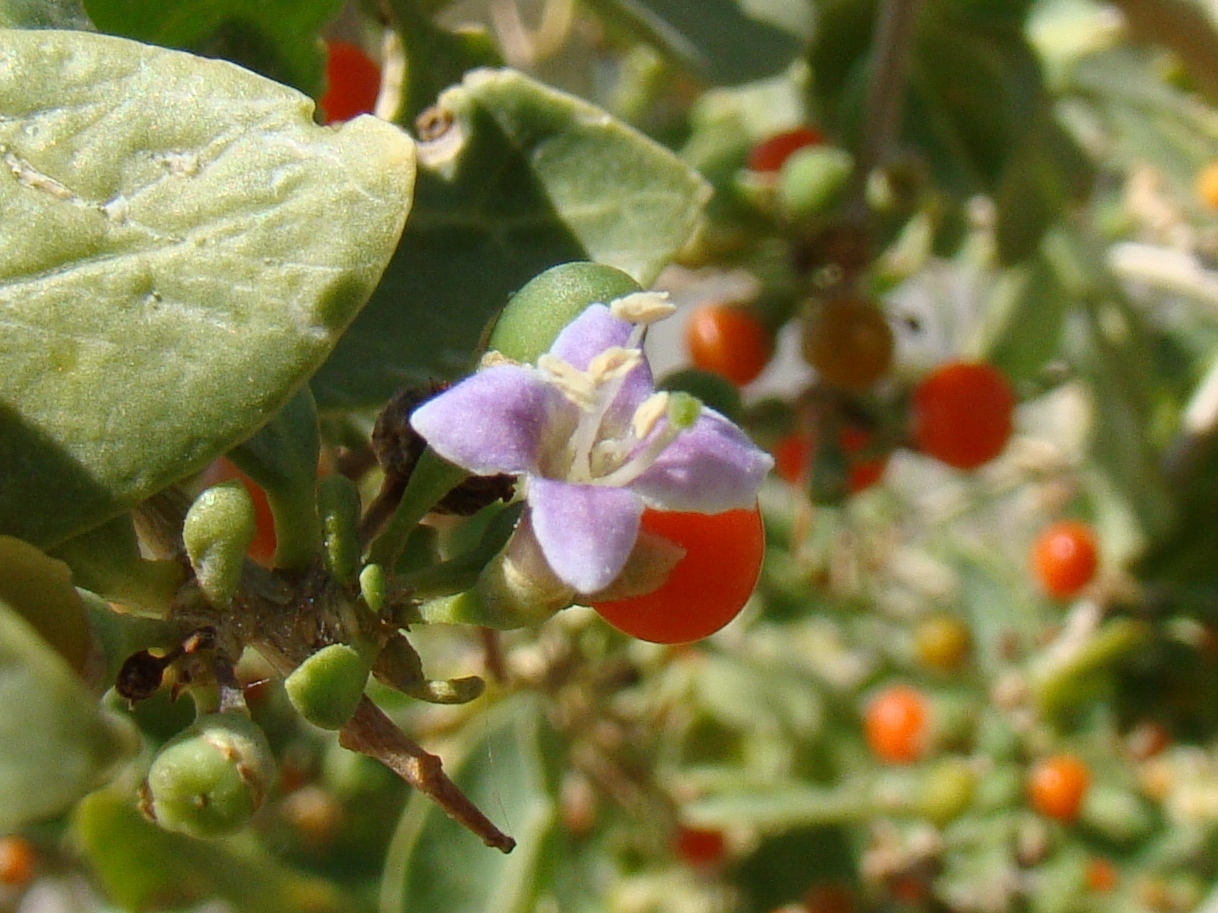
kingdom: Plantae
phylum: Tracheophyta
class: Magnoliopsida
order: Solanales
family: Solanaceae
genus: Lycium
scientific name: Lycium dasystemum
